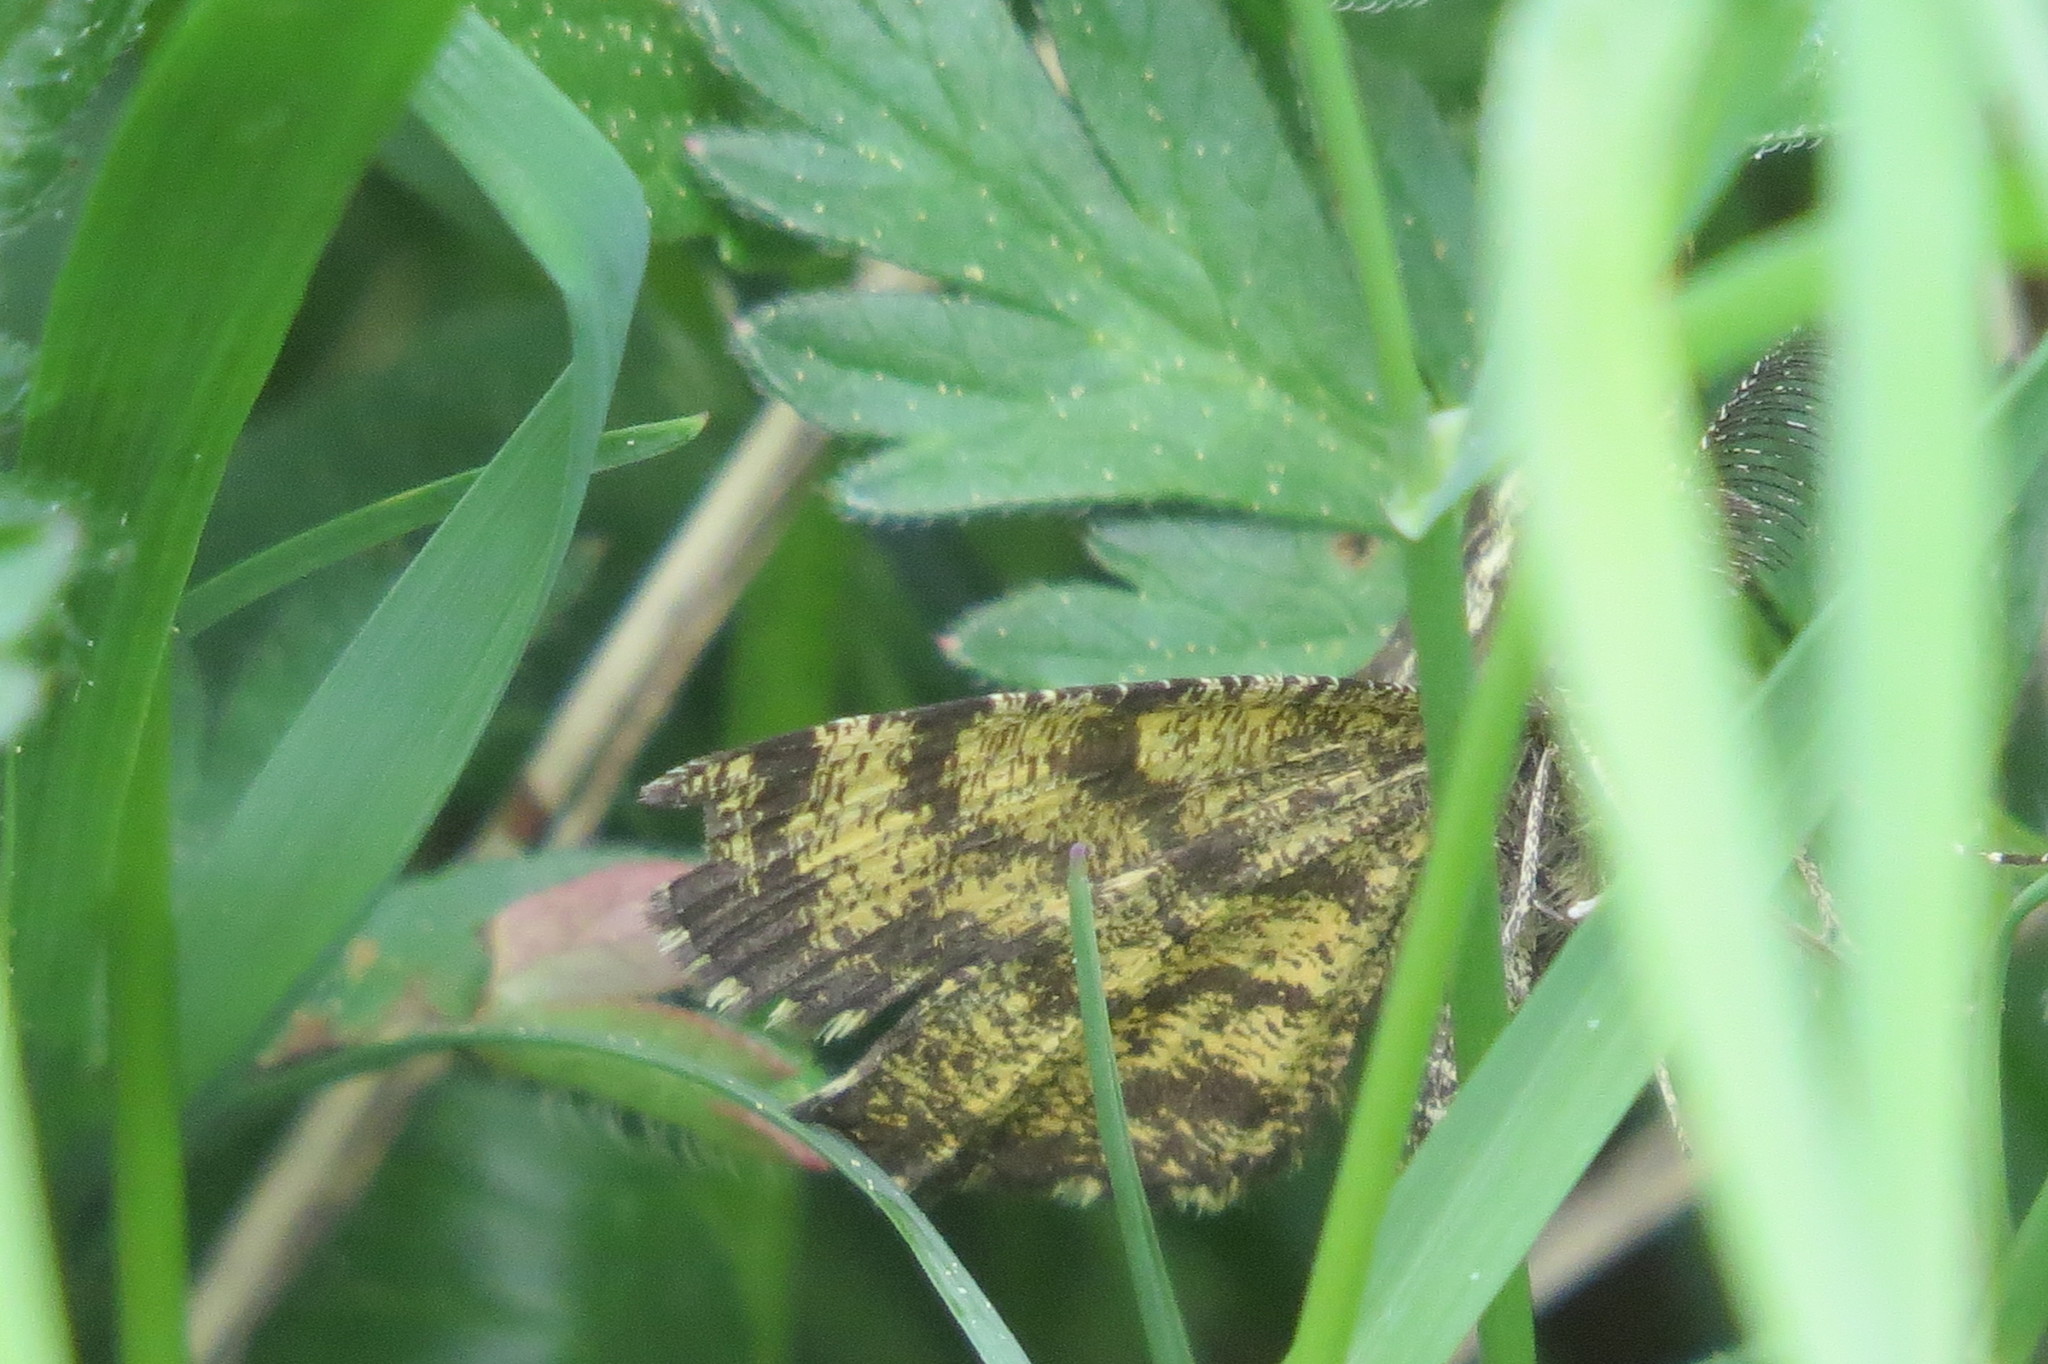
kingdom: Animalia
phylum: Arthropoda
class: Insecta
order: Lepidoptera
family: Geometridae
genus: Ematurga
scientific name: Ematurga atomaria
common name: Common heath
